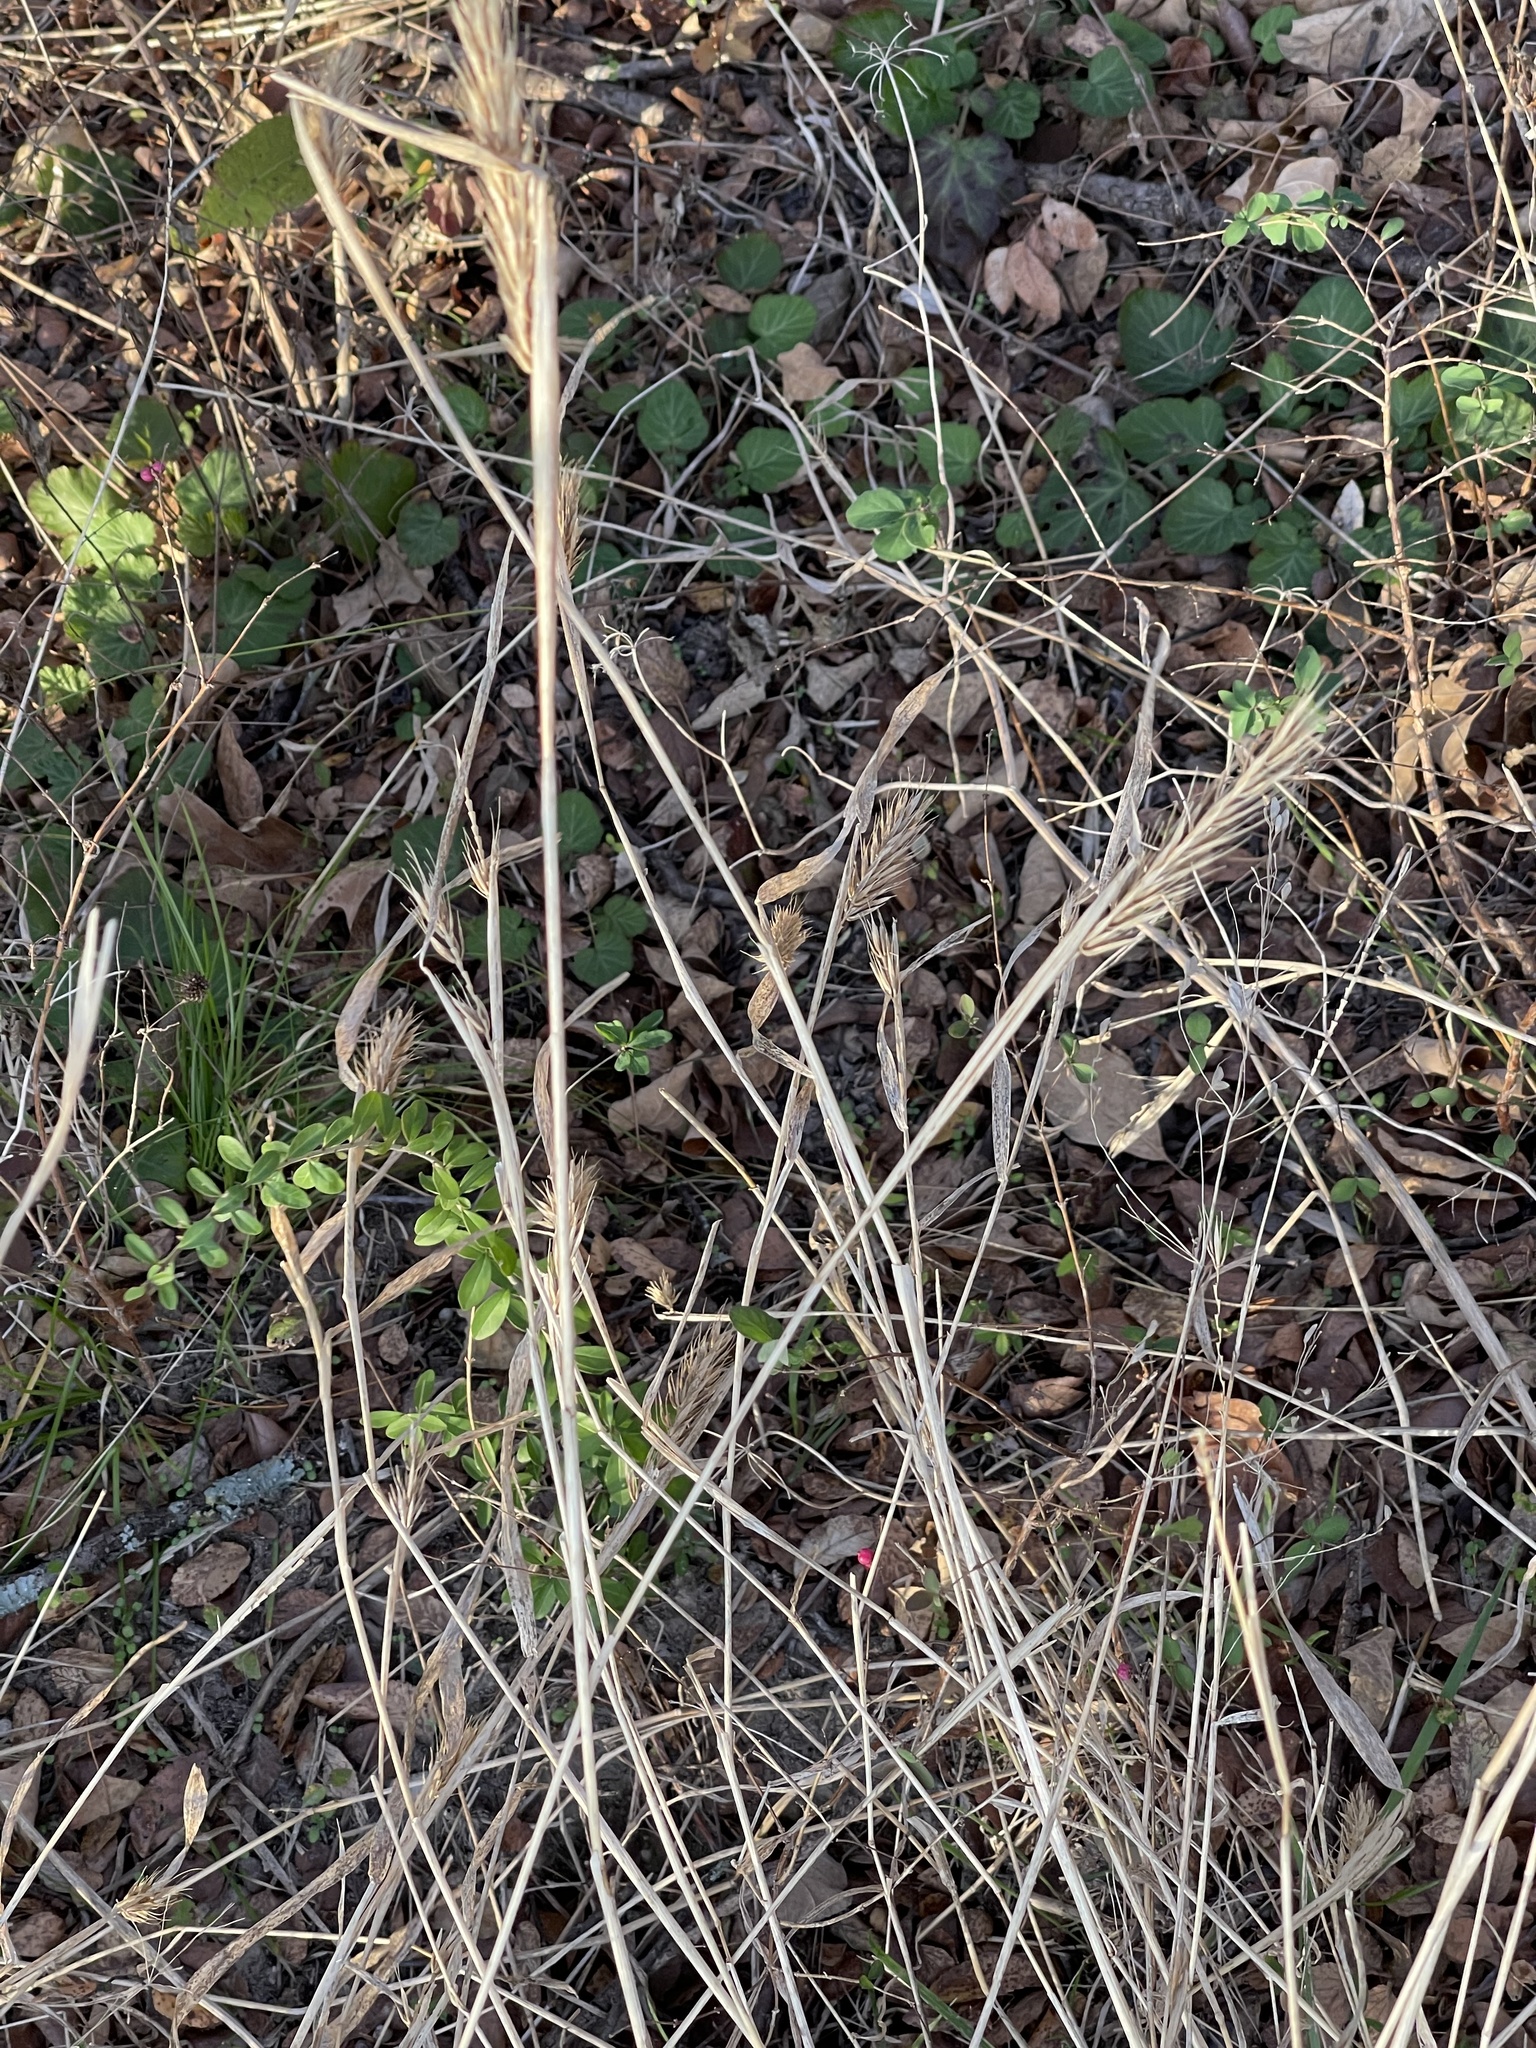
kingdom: Plantae
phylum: Tracheophyta
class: Liliopsida
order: Poales
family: Poaceae
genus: Elymus
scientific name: Elymus virginicus
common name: Common eastern wildrye
